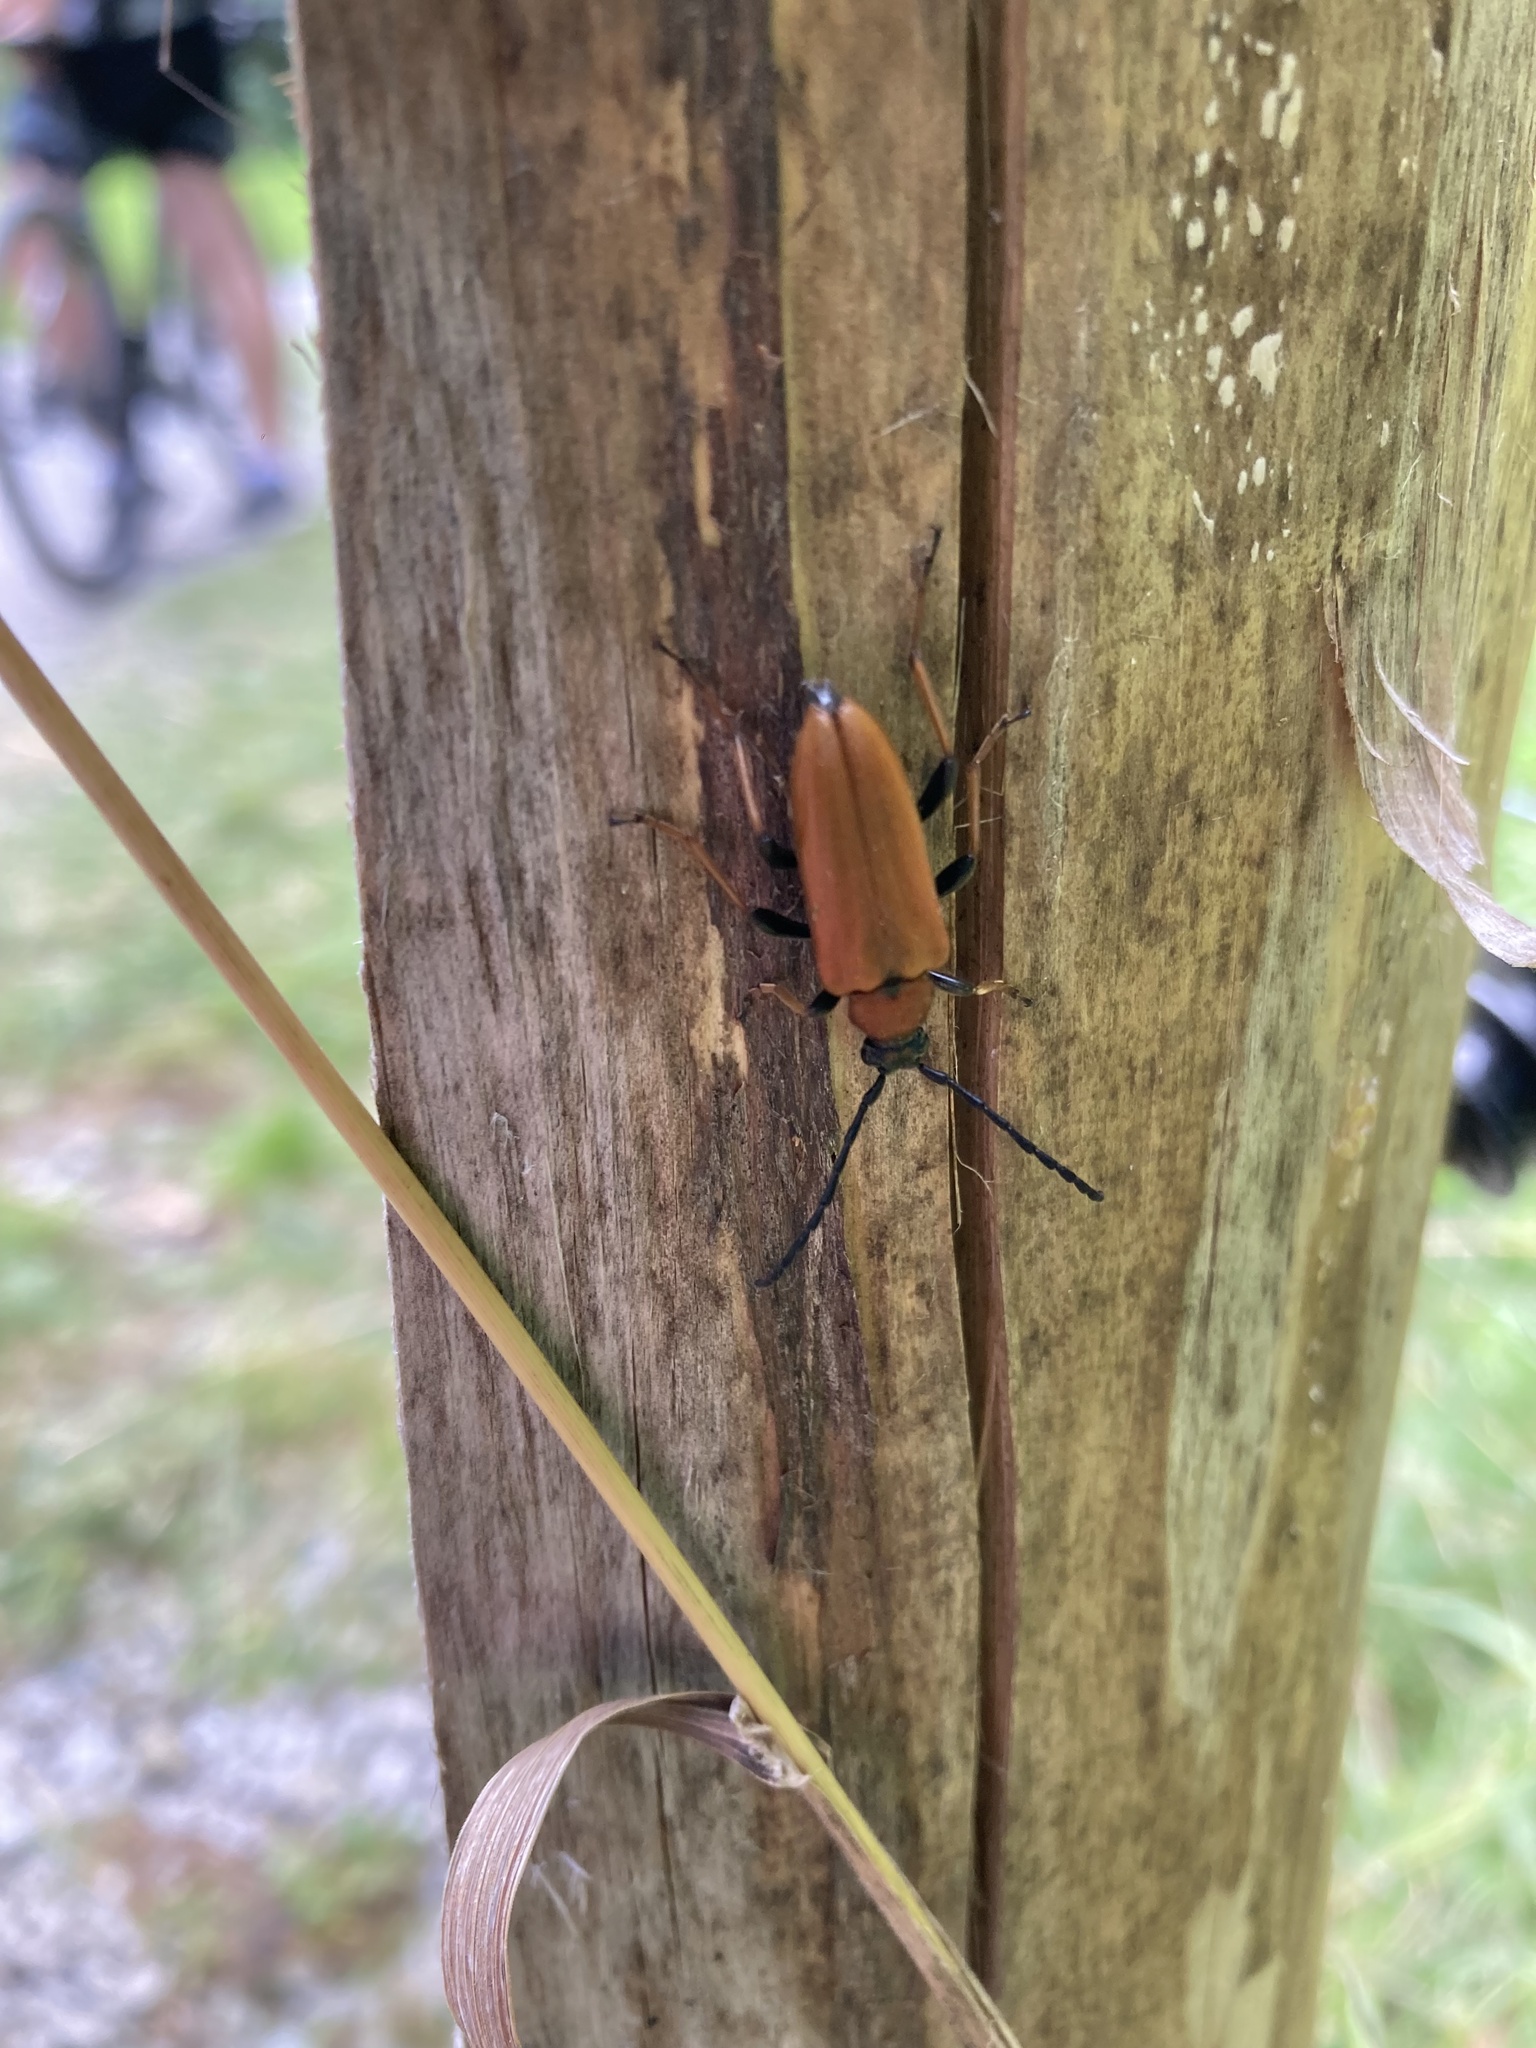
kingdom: Animalia
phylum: Arthropoda
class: Insecta
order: Coleoptera
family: Cerambycidae
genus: Stictoleptura
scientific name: Stictoleptura rubra
